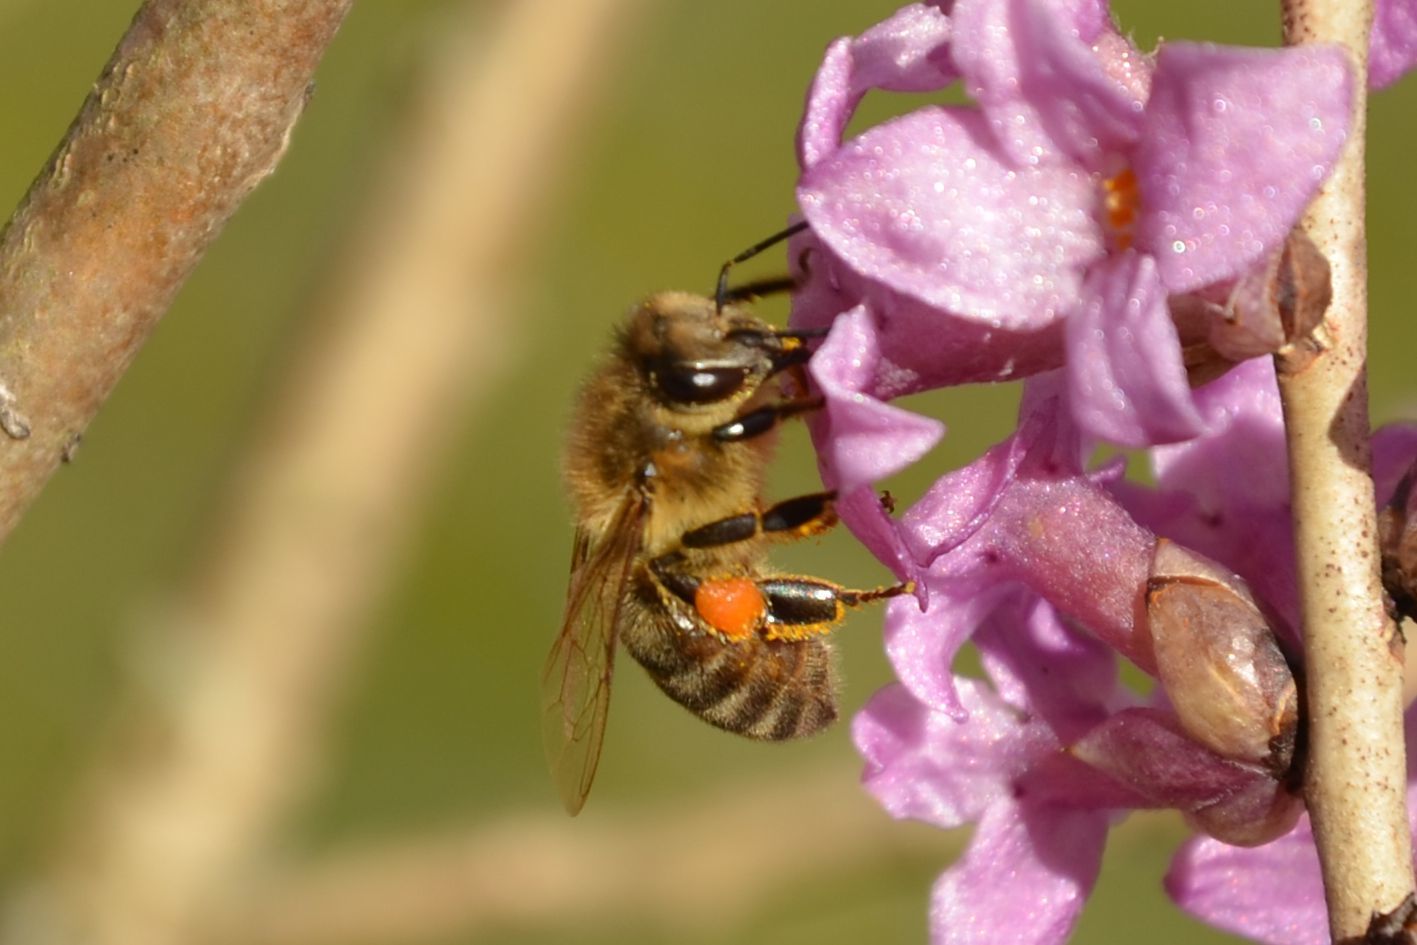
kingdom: Animalia
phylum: Arthropoda
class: Insecta
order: Hymenoptera
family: Apidae
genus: Apis
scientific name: Apis mellifera
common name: Honey bee
